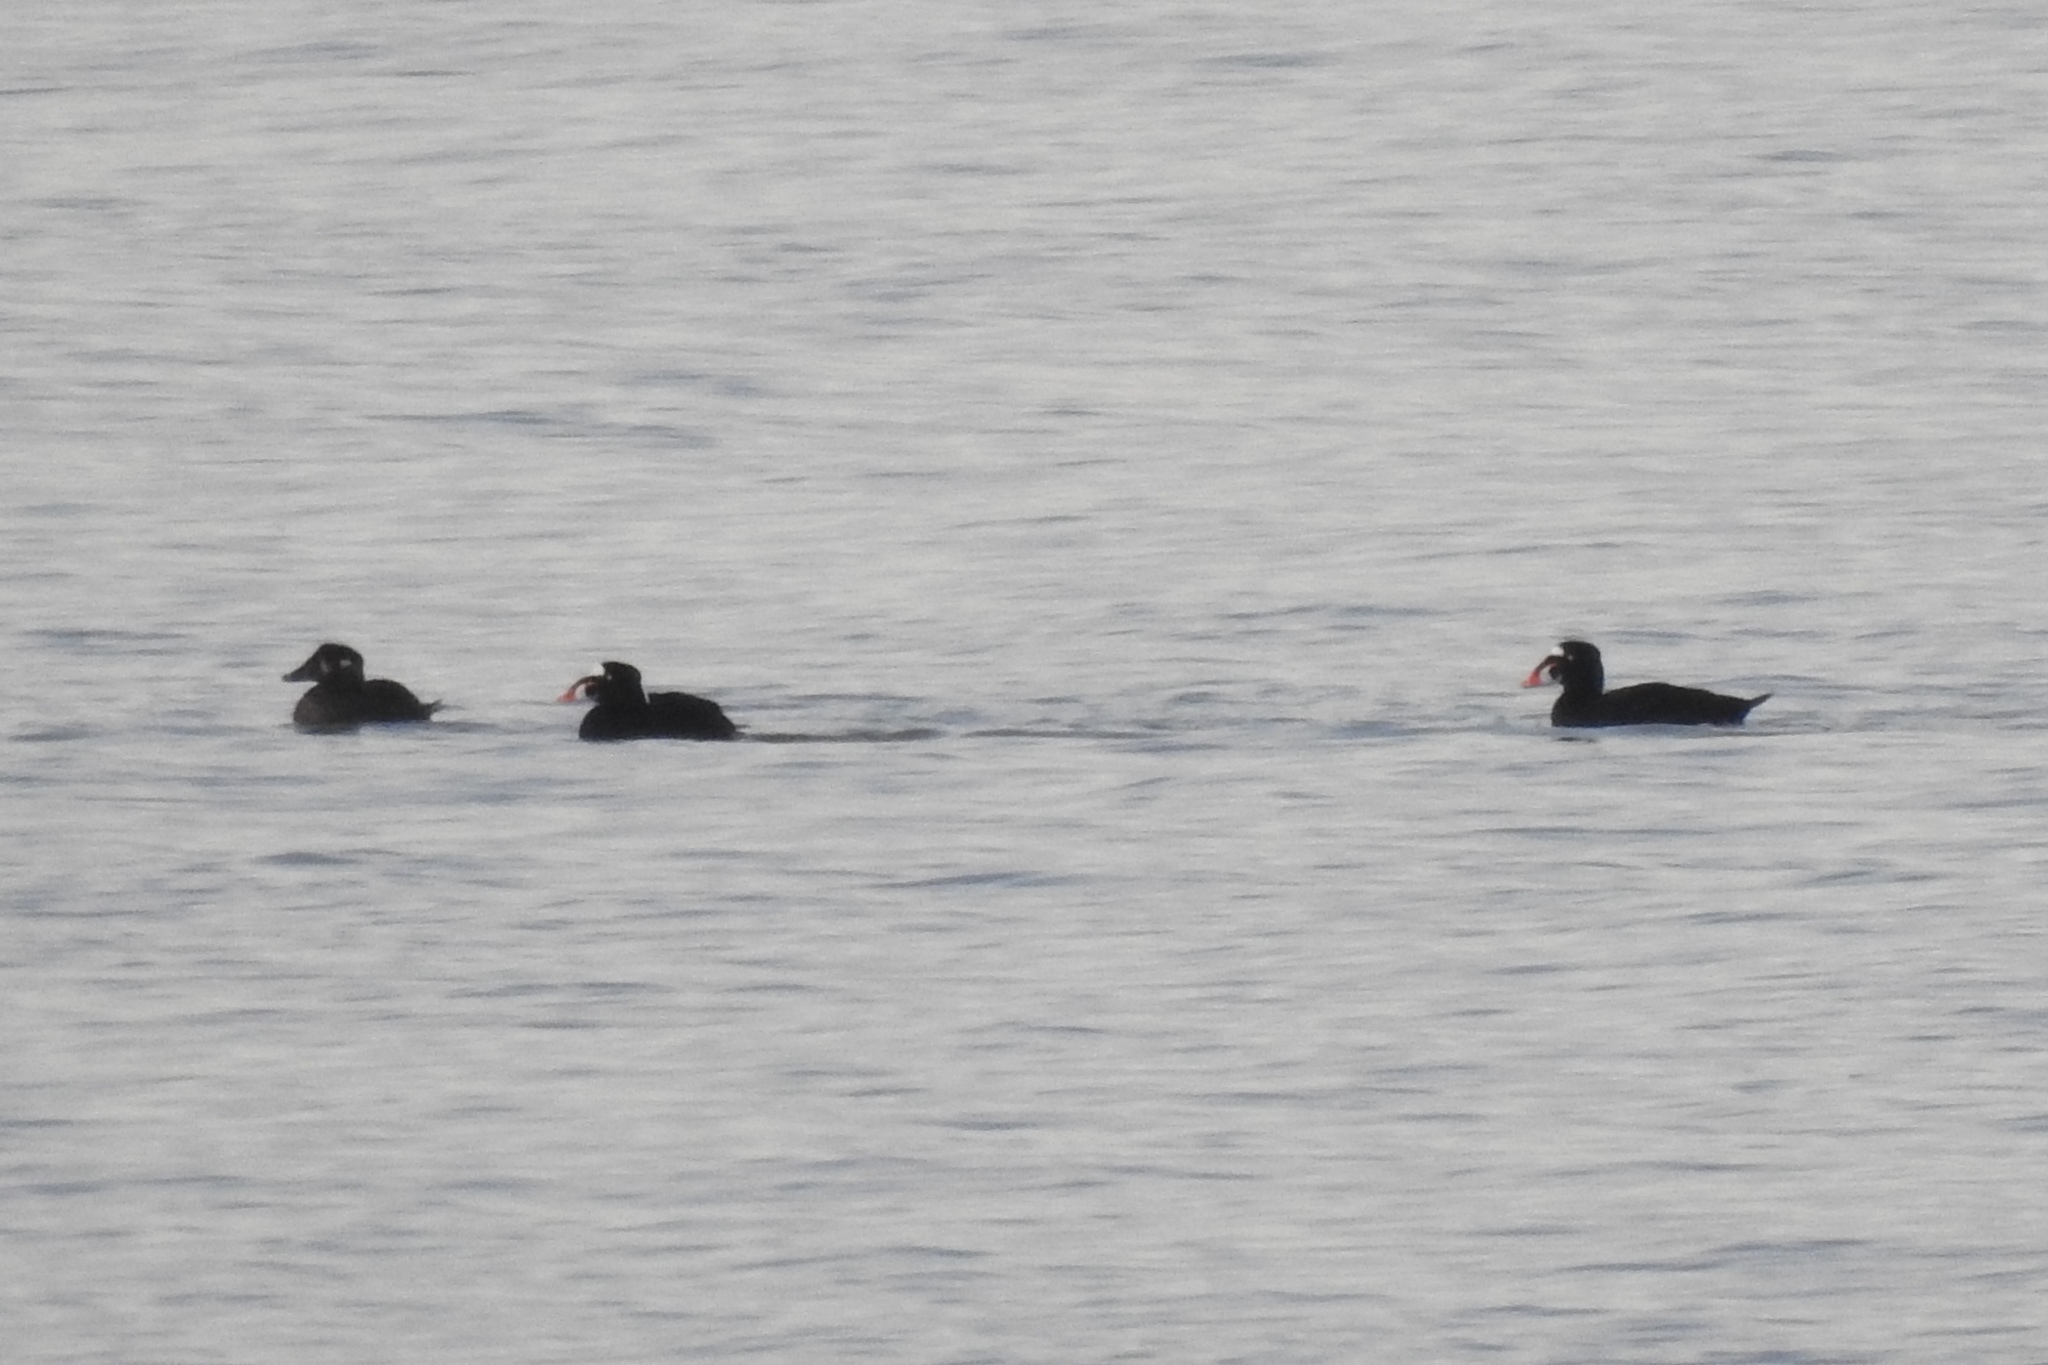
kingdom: Animalia
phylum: Chordata
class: Aves
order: Anseriformes
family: Anatidae
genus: Melanitta
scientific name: Melanitta perspicillata
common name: Surf scoter
